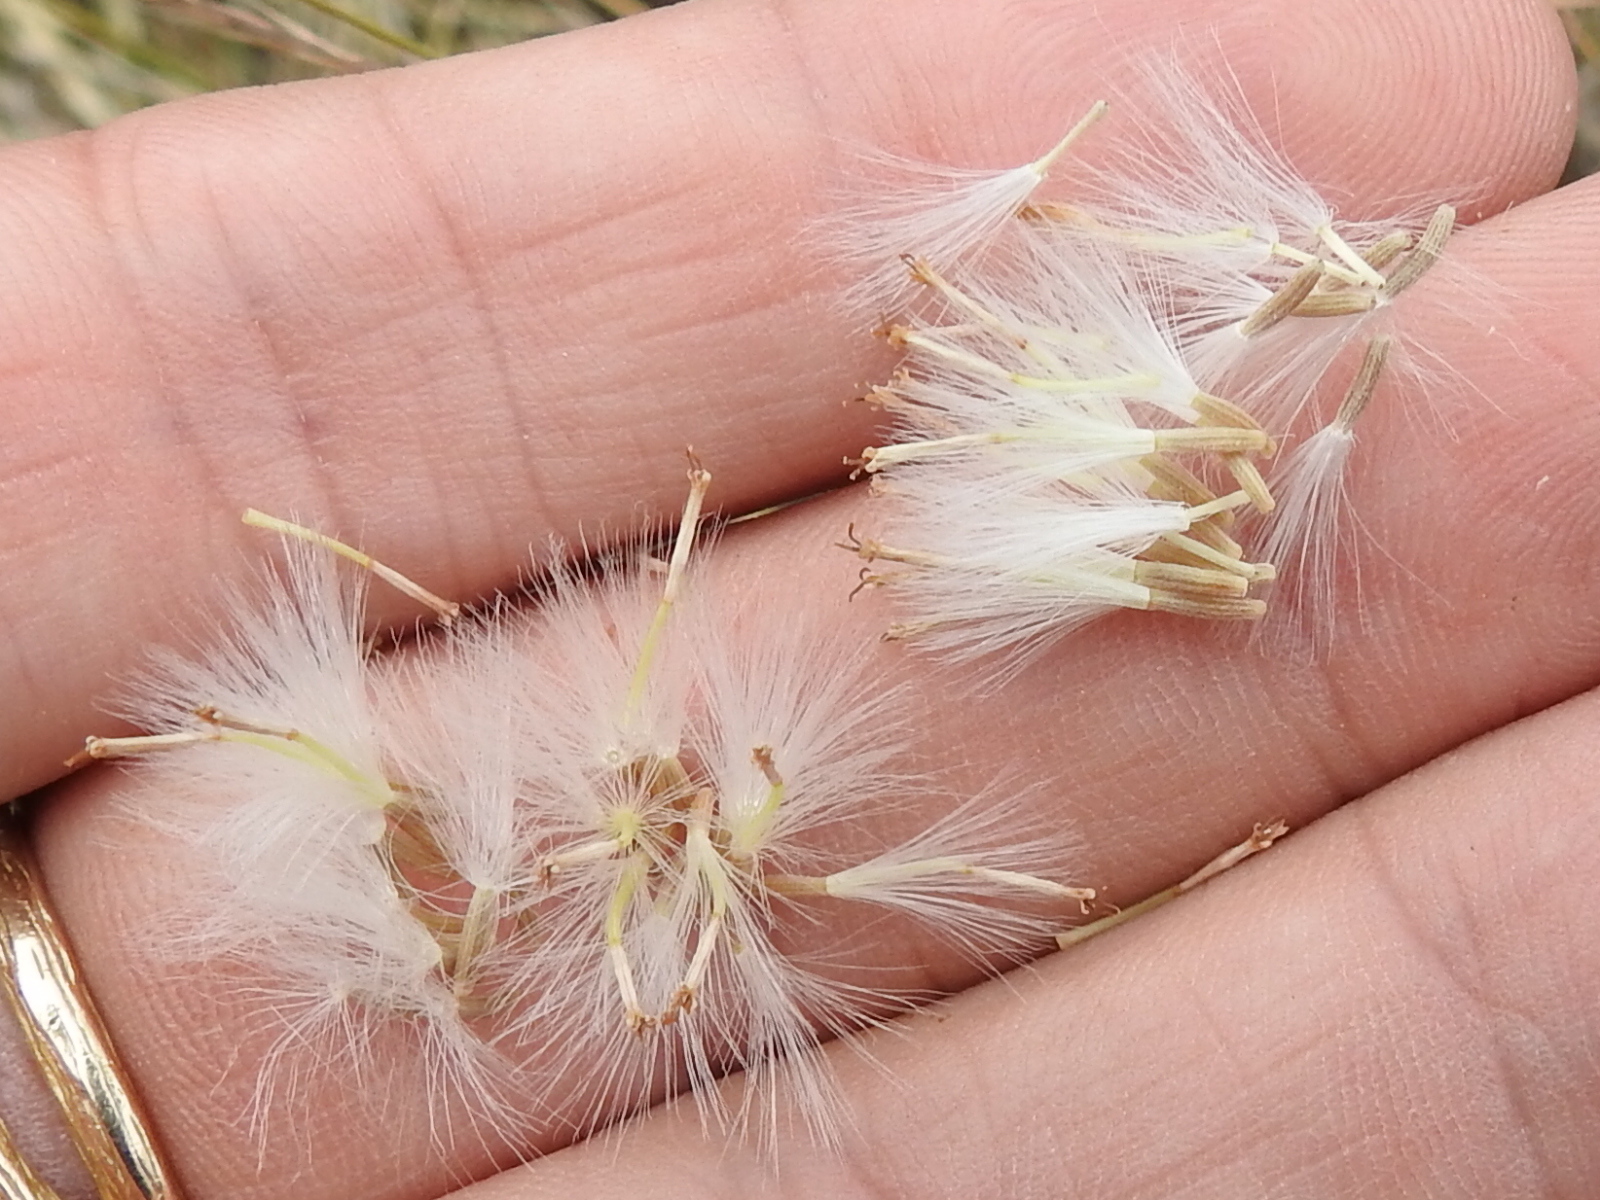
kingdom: Plantae
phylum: Tracheophyta
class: Magnoliopsida
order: Asterales
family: Asteraceae
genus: Senecio
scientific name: Senecio flaccidus
